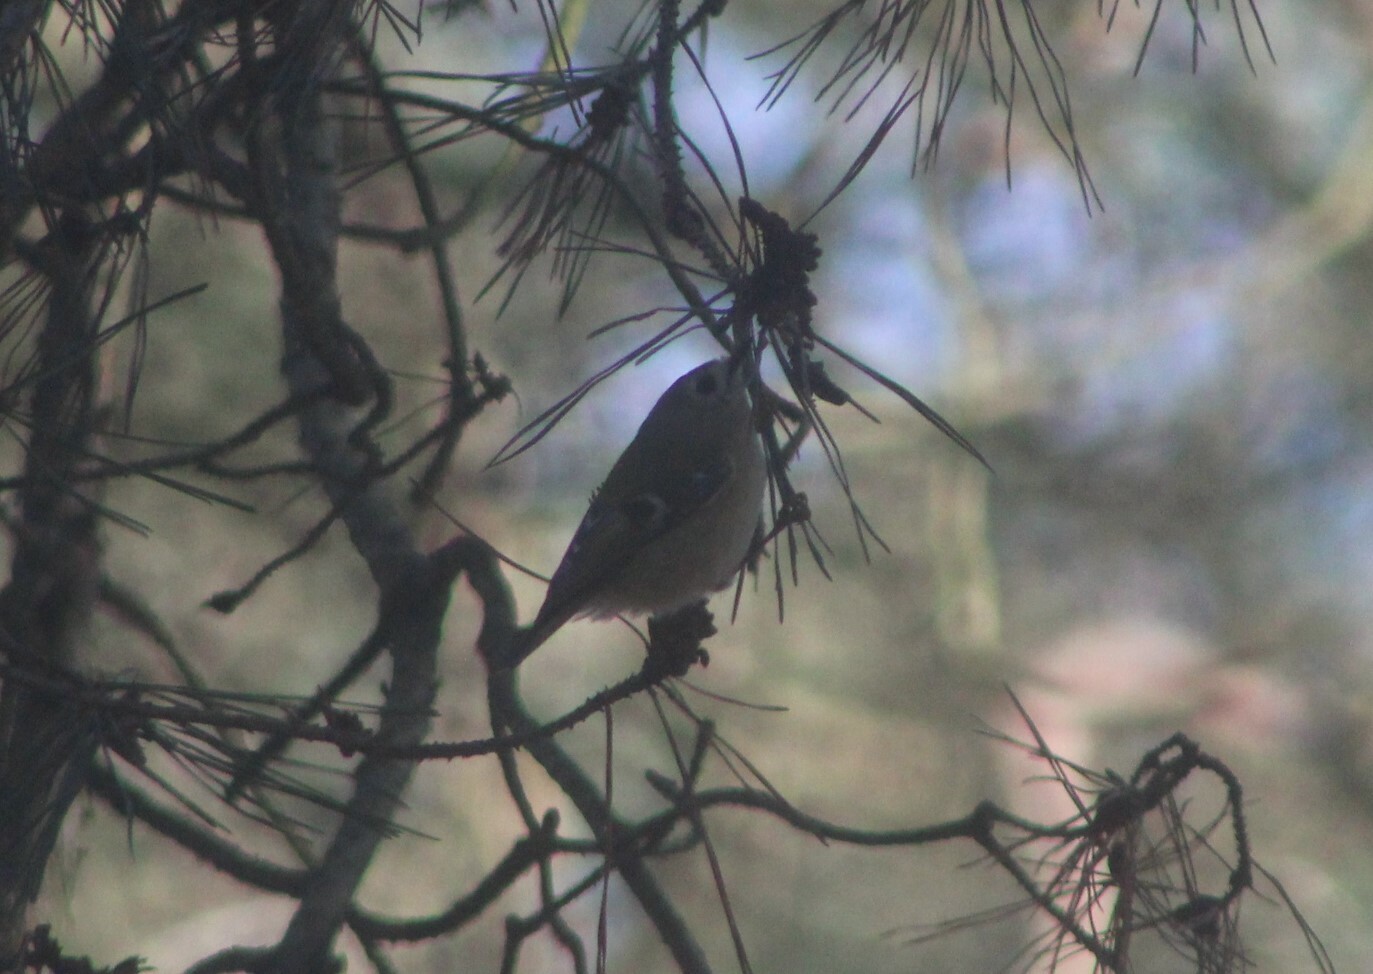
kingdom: Animalia
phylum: Chordata
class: Aves
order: Passeriformes
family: Regulidae
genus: Regulus
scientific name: Regulus regulus
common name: Goldcrest
